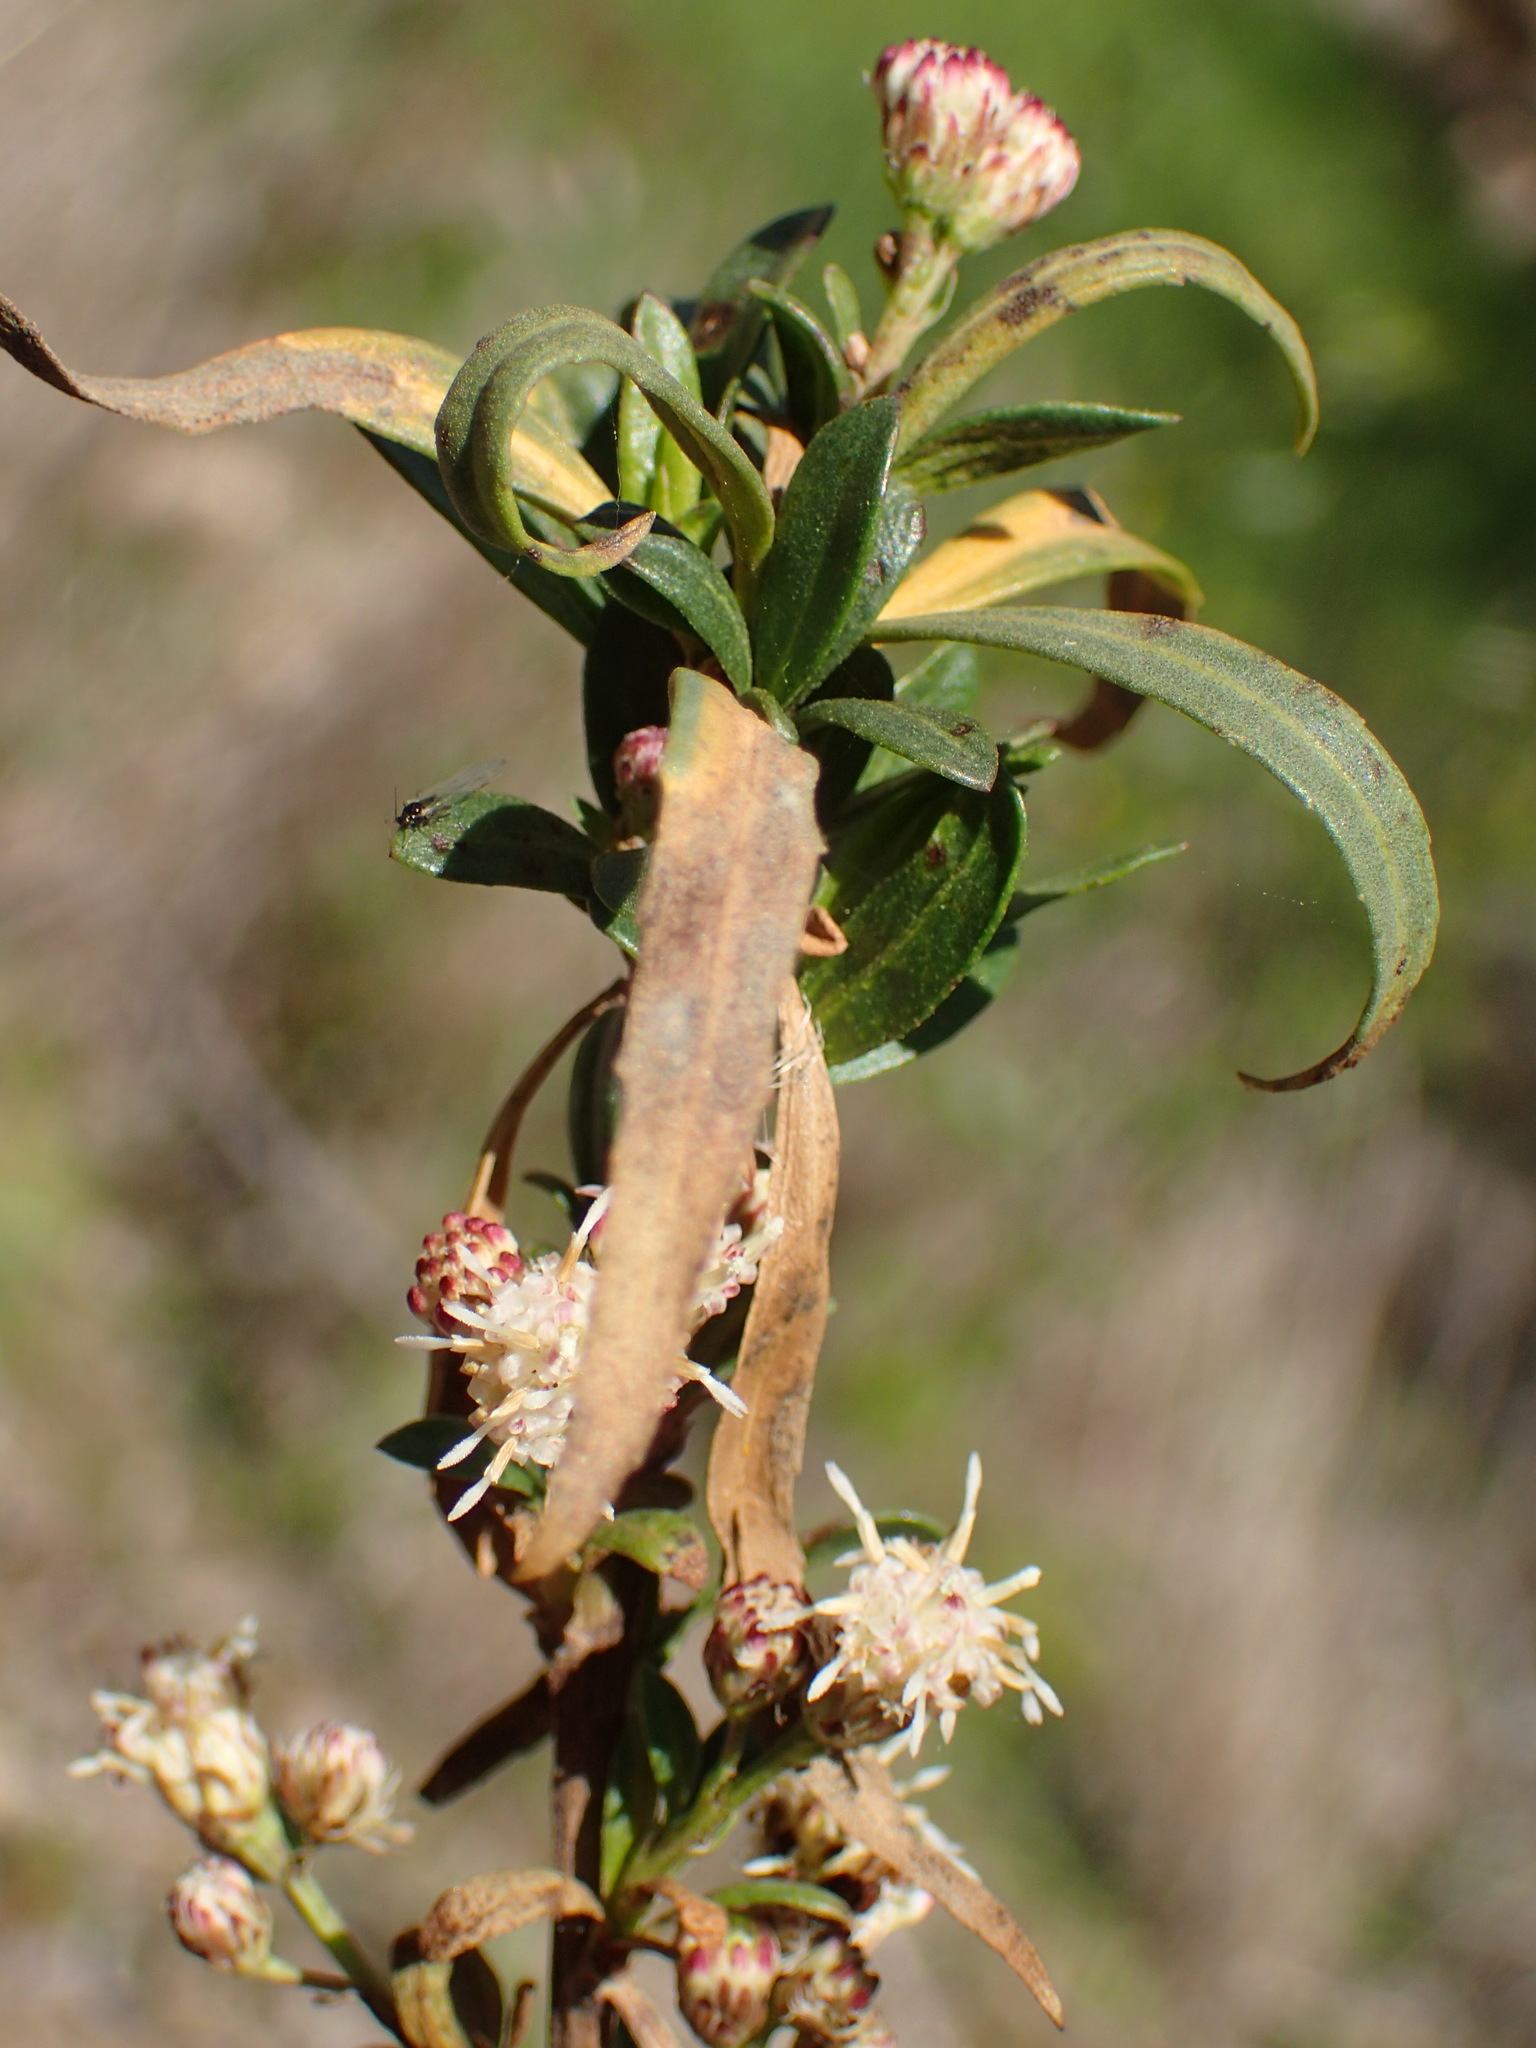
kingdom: Plantae
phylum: Tracheophyta
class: Magnoliopsida
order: Asterales
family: Asteraceae
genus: Baccharis
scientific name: Baccharis salicifolia
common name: Sticky baccharis
